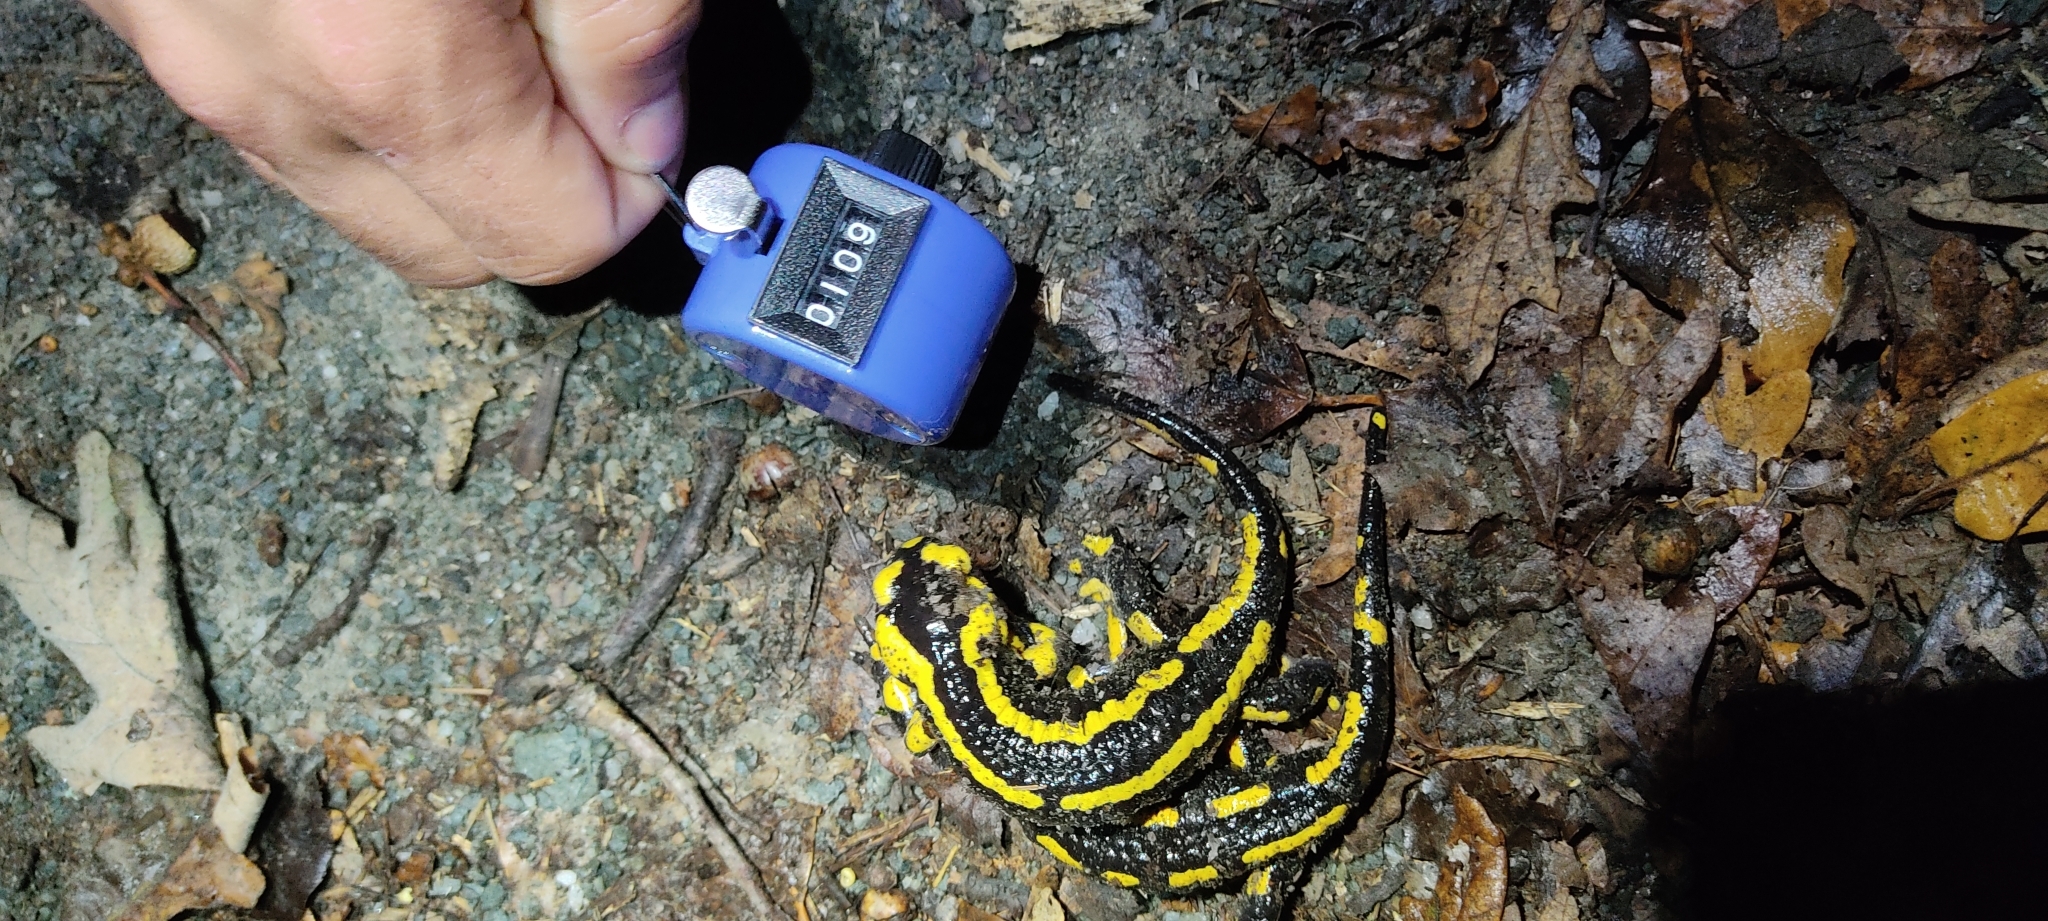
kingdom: Animalia
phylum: Chordata
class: Amphibia
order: Caudata
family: Salamandridae
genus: Salamandra
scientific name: Salamandra salamandra
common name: Fire salamander
